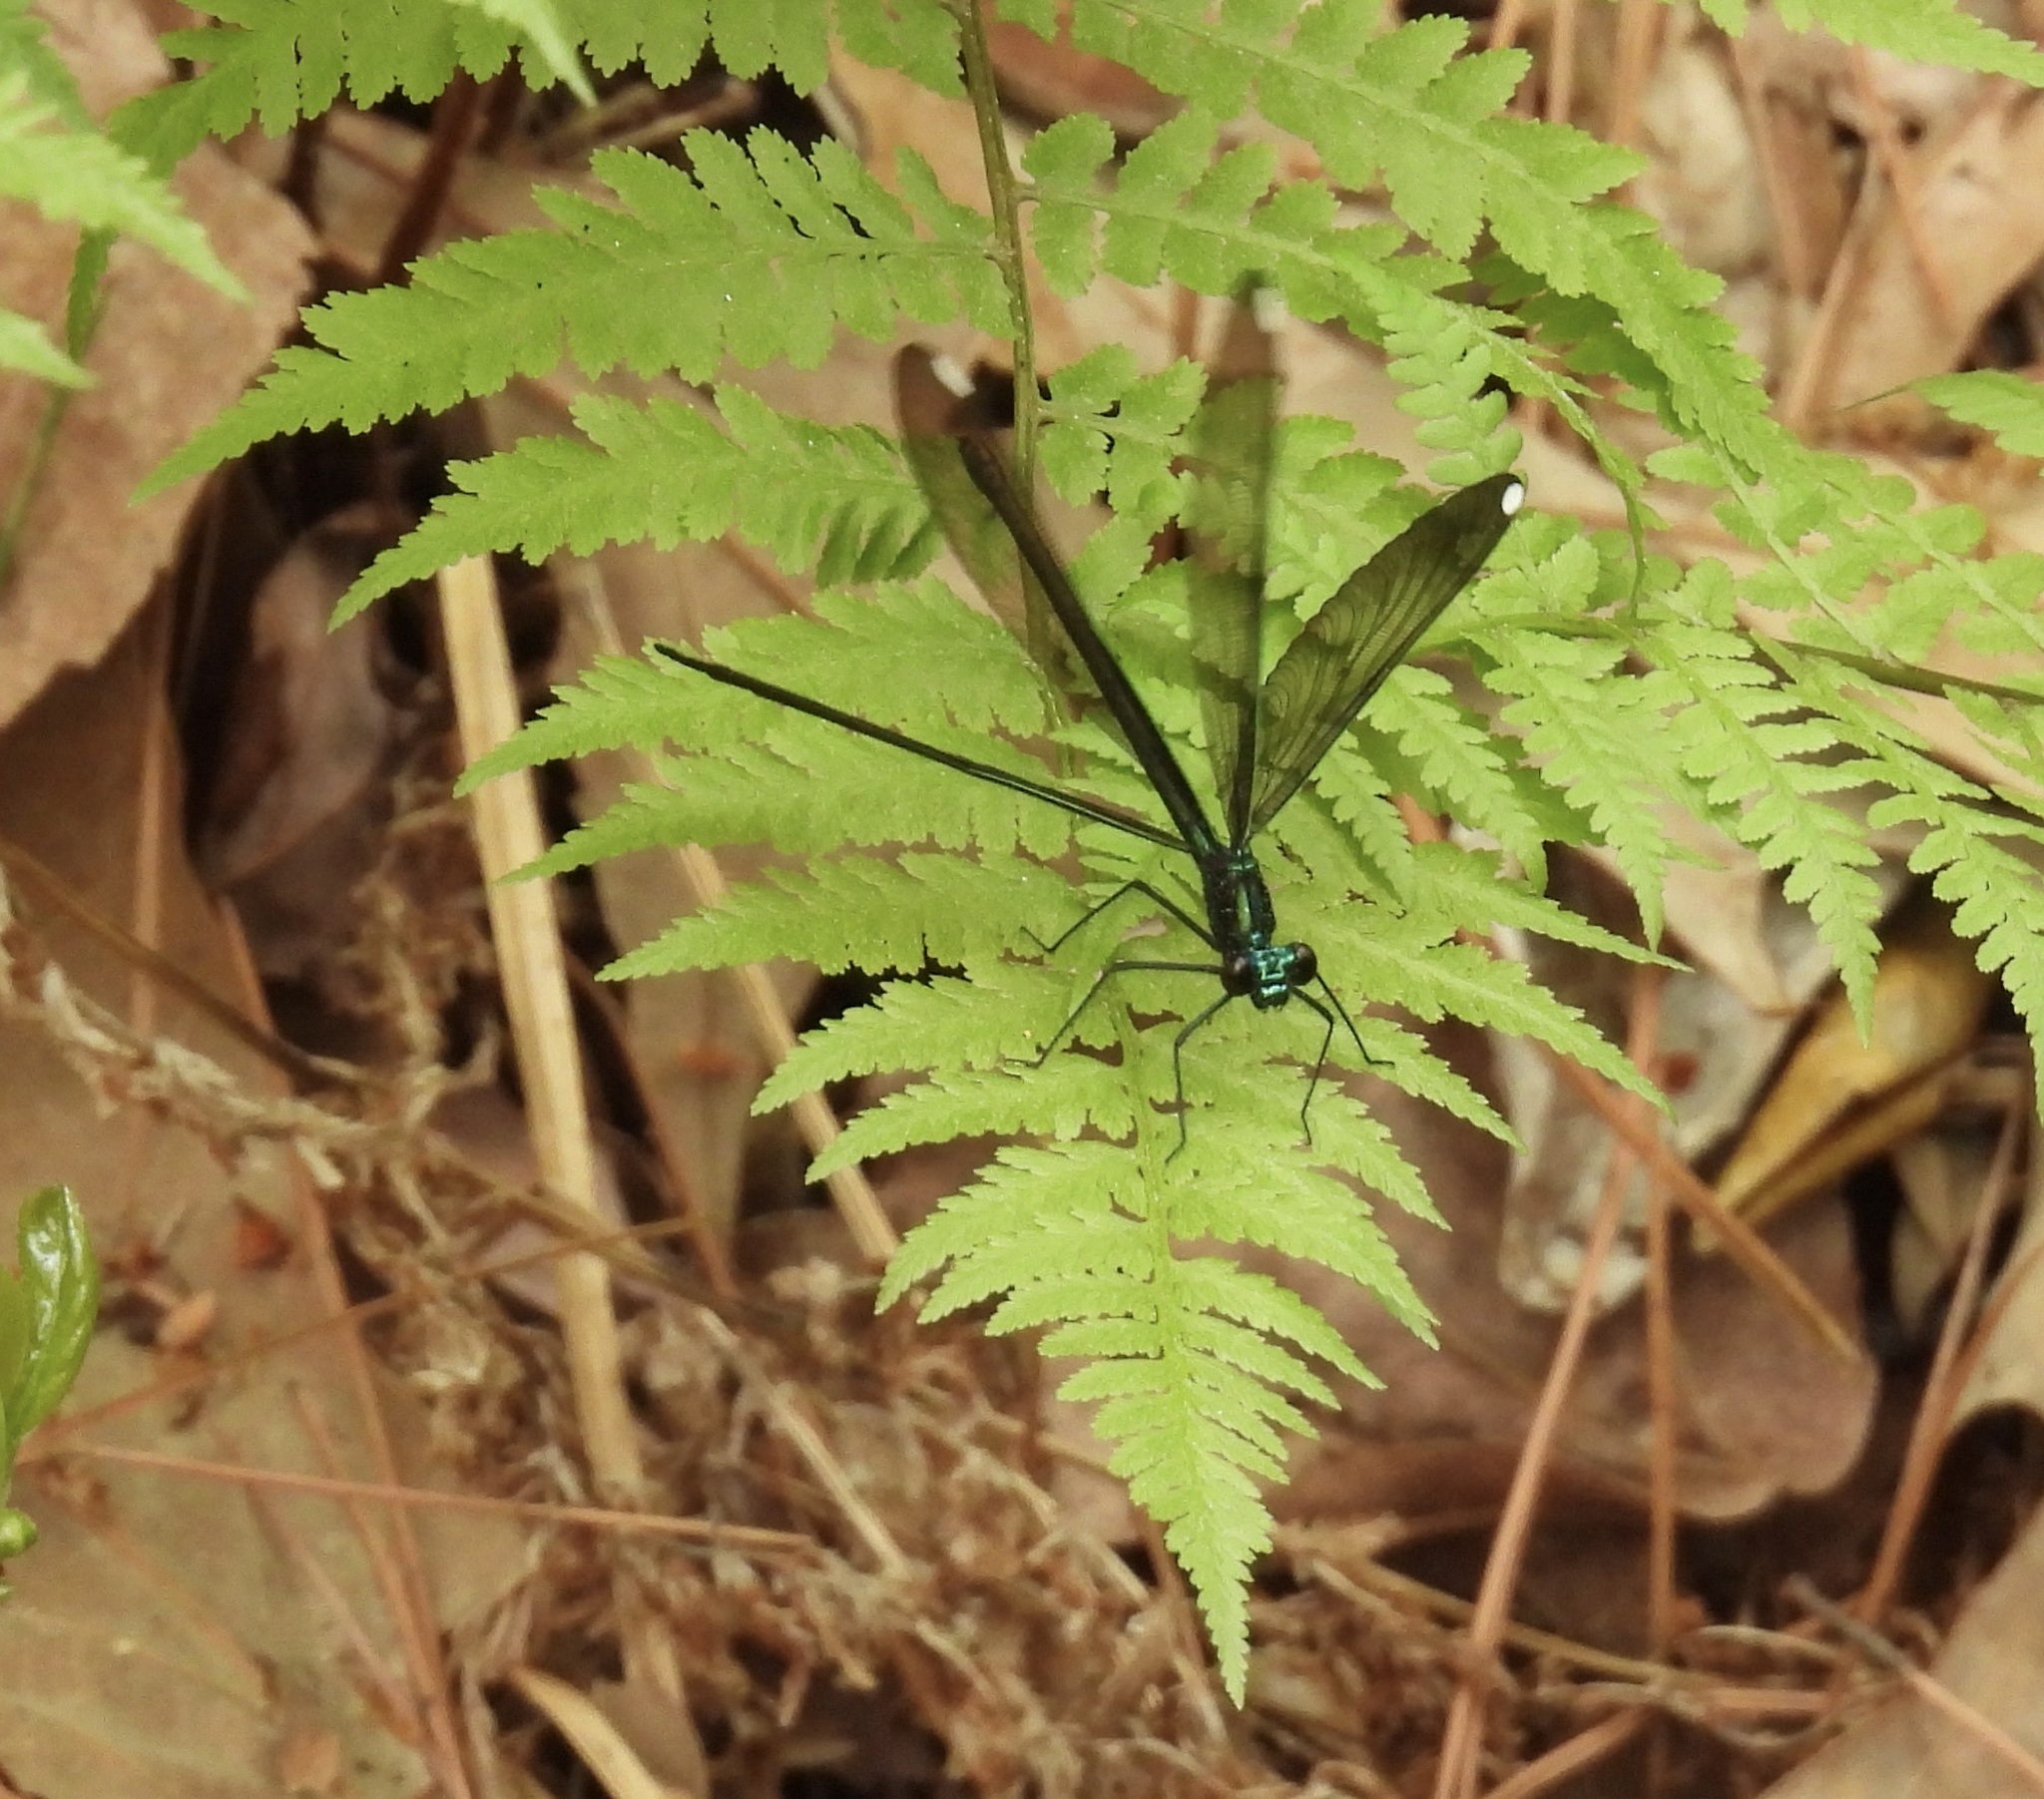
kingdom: Animalia
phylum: Arthropoda
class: Insecta
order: Odonata
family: Calopterygidae
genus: Calopteryx
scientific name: Calopteryx maculata
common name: Ebony jewelwing
